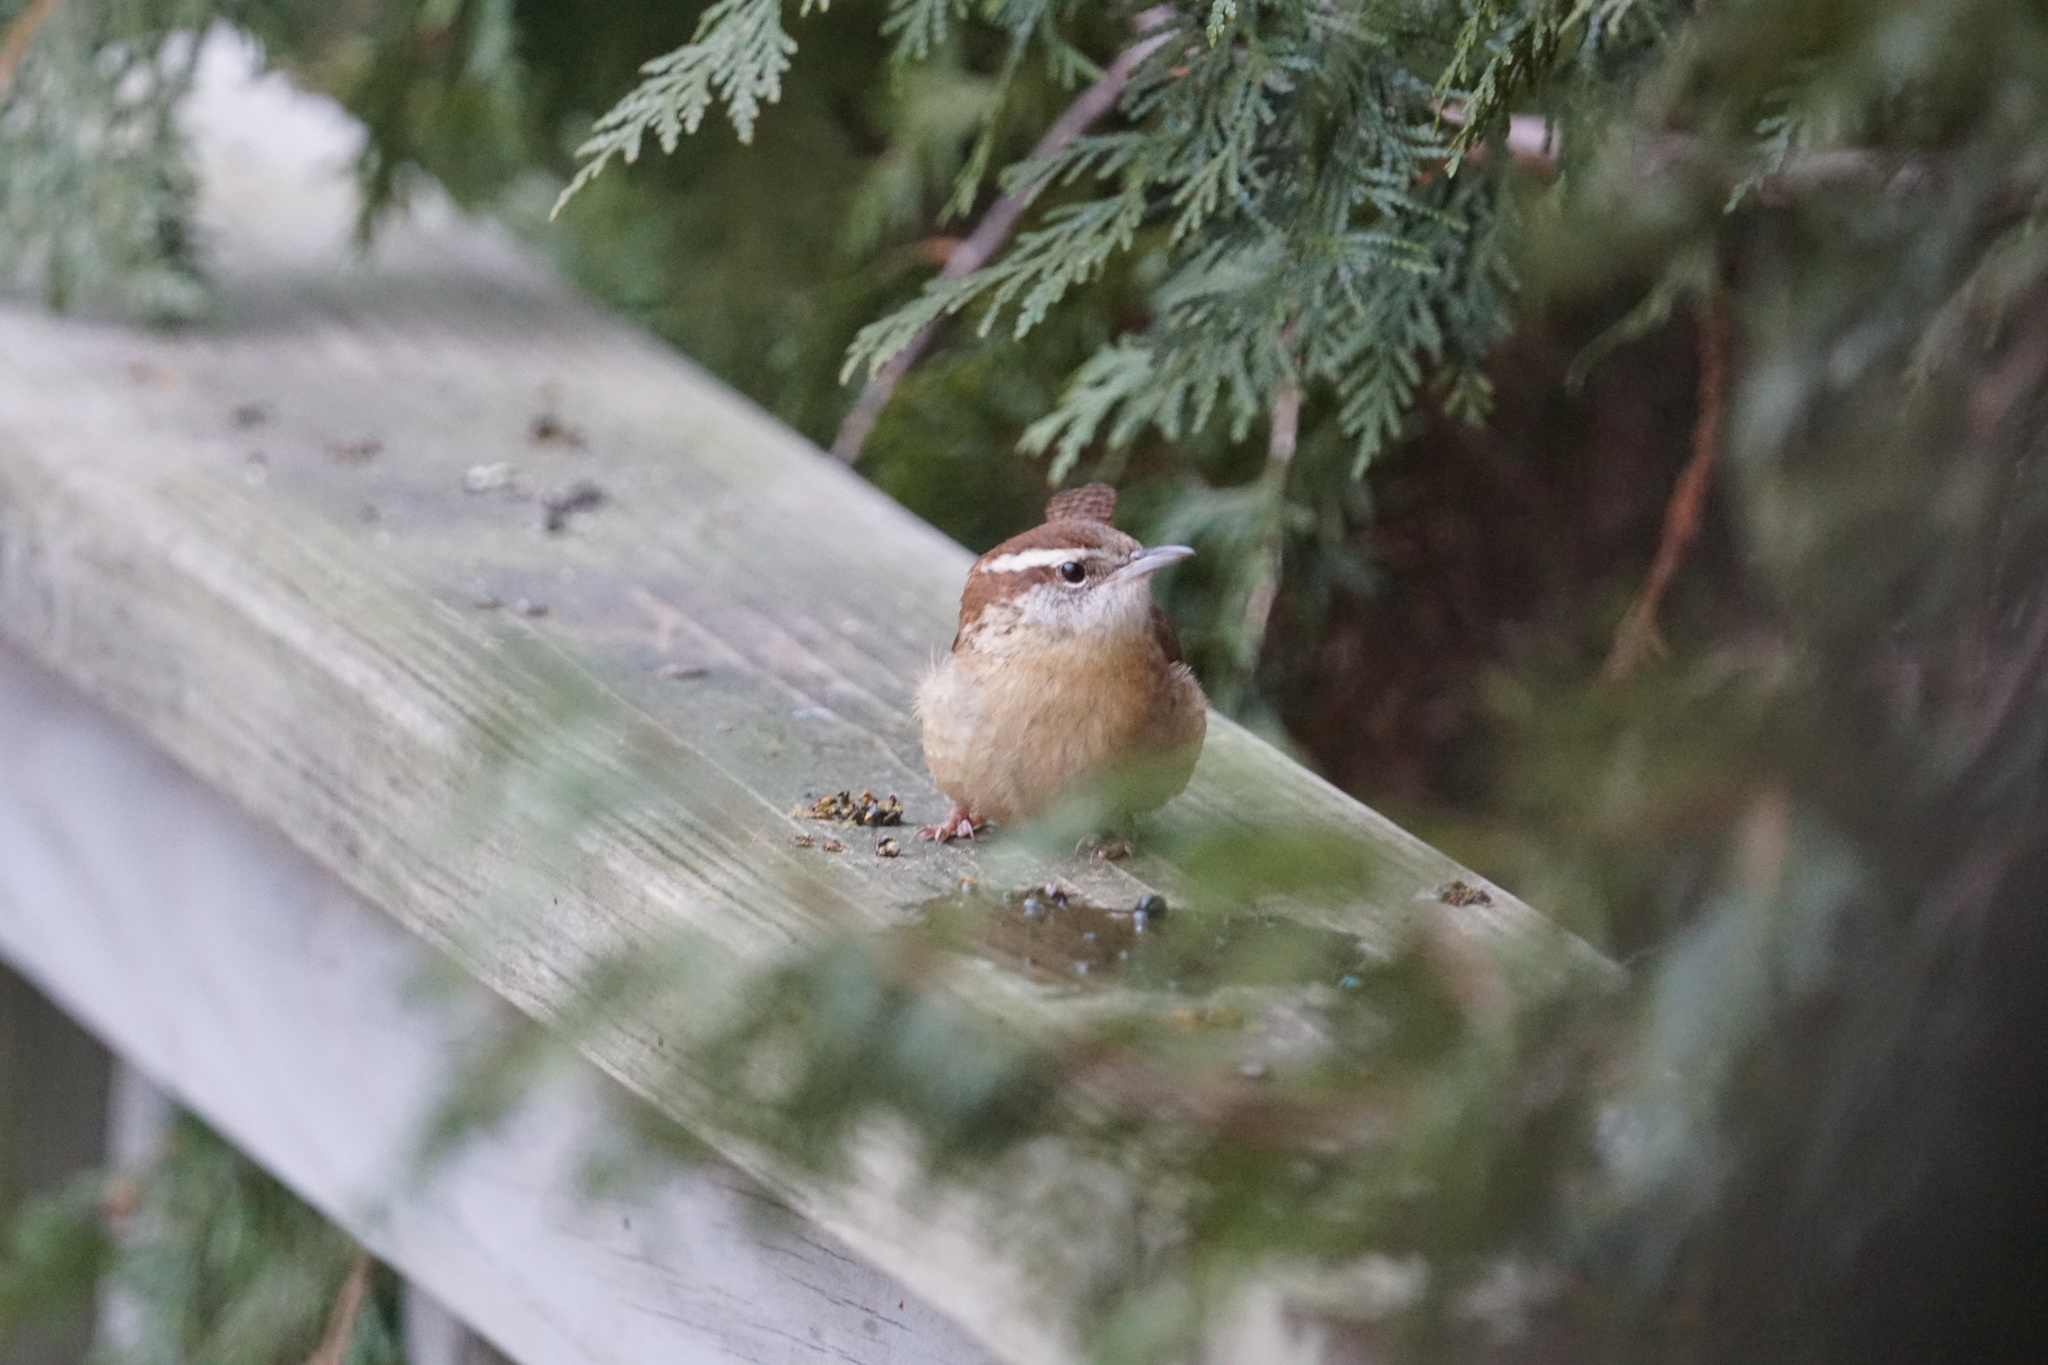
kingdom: Animalia
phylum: Chordata
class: Aves
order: Passeriformes
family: Troglodytidae
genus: Thryothorus
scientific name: Thryothorus ludovicianus
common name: Carolina wren
